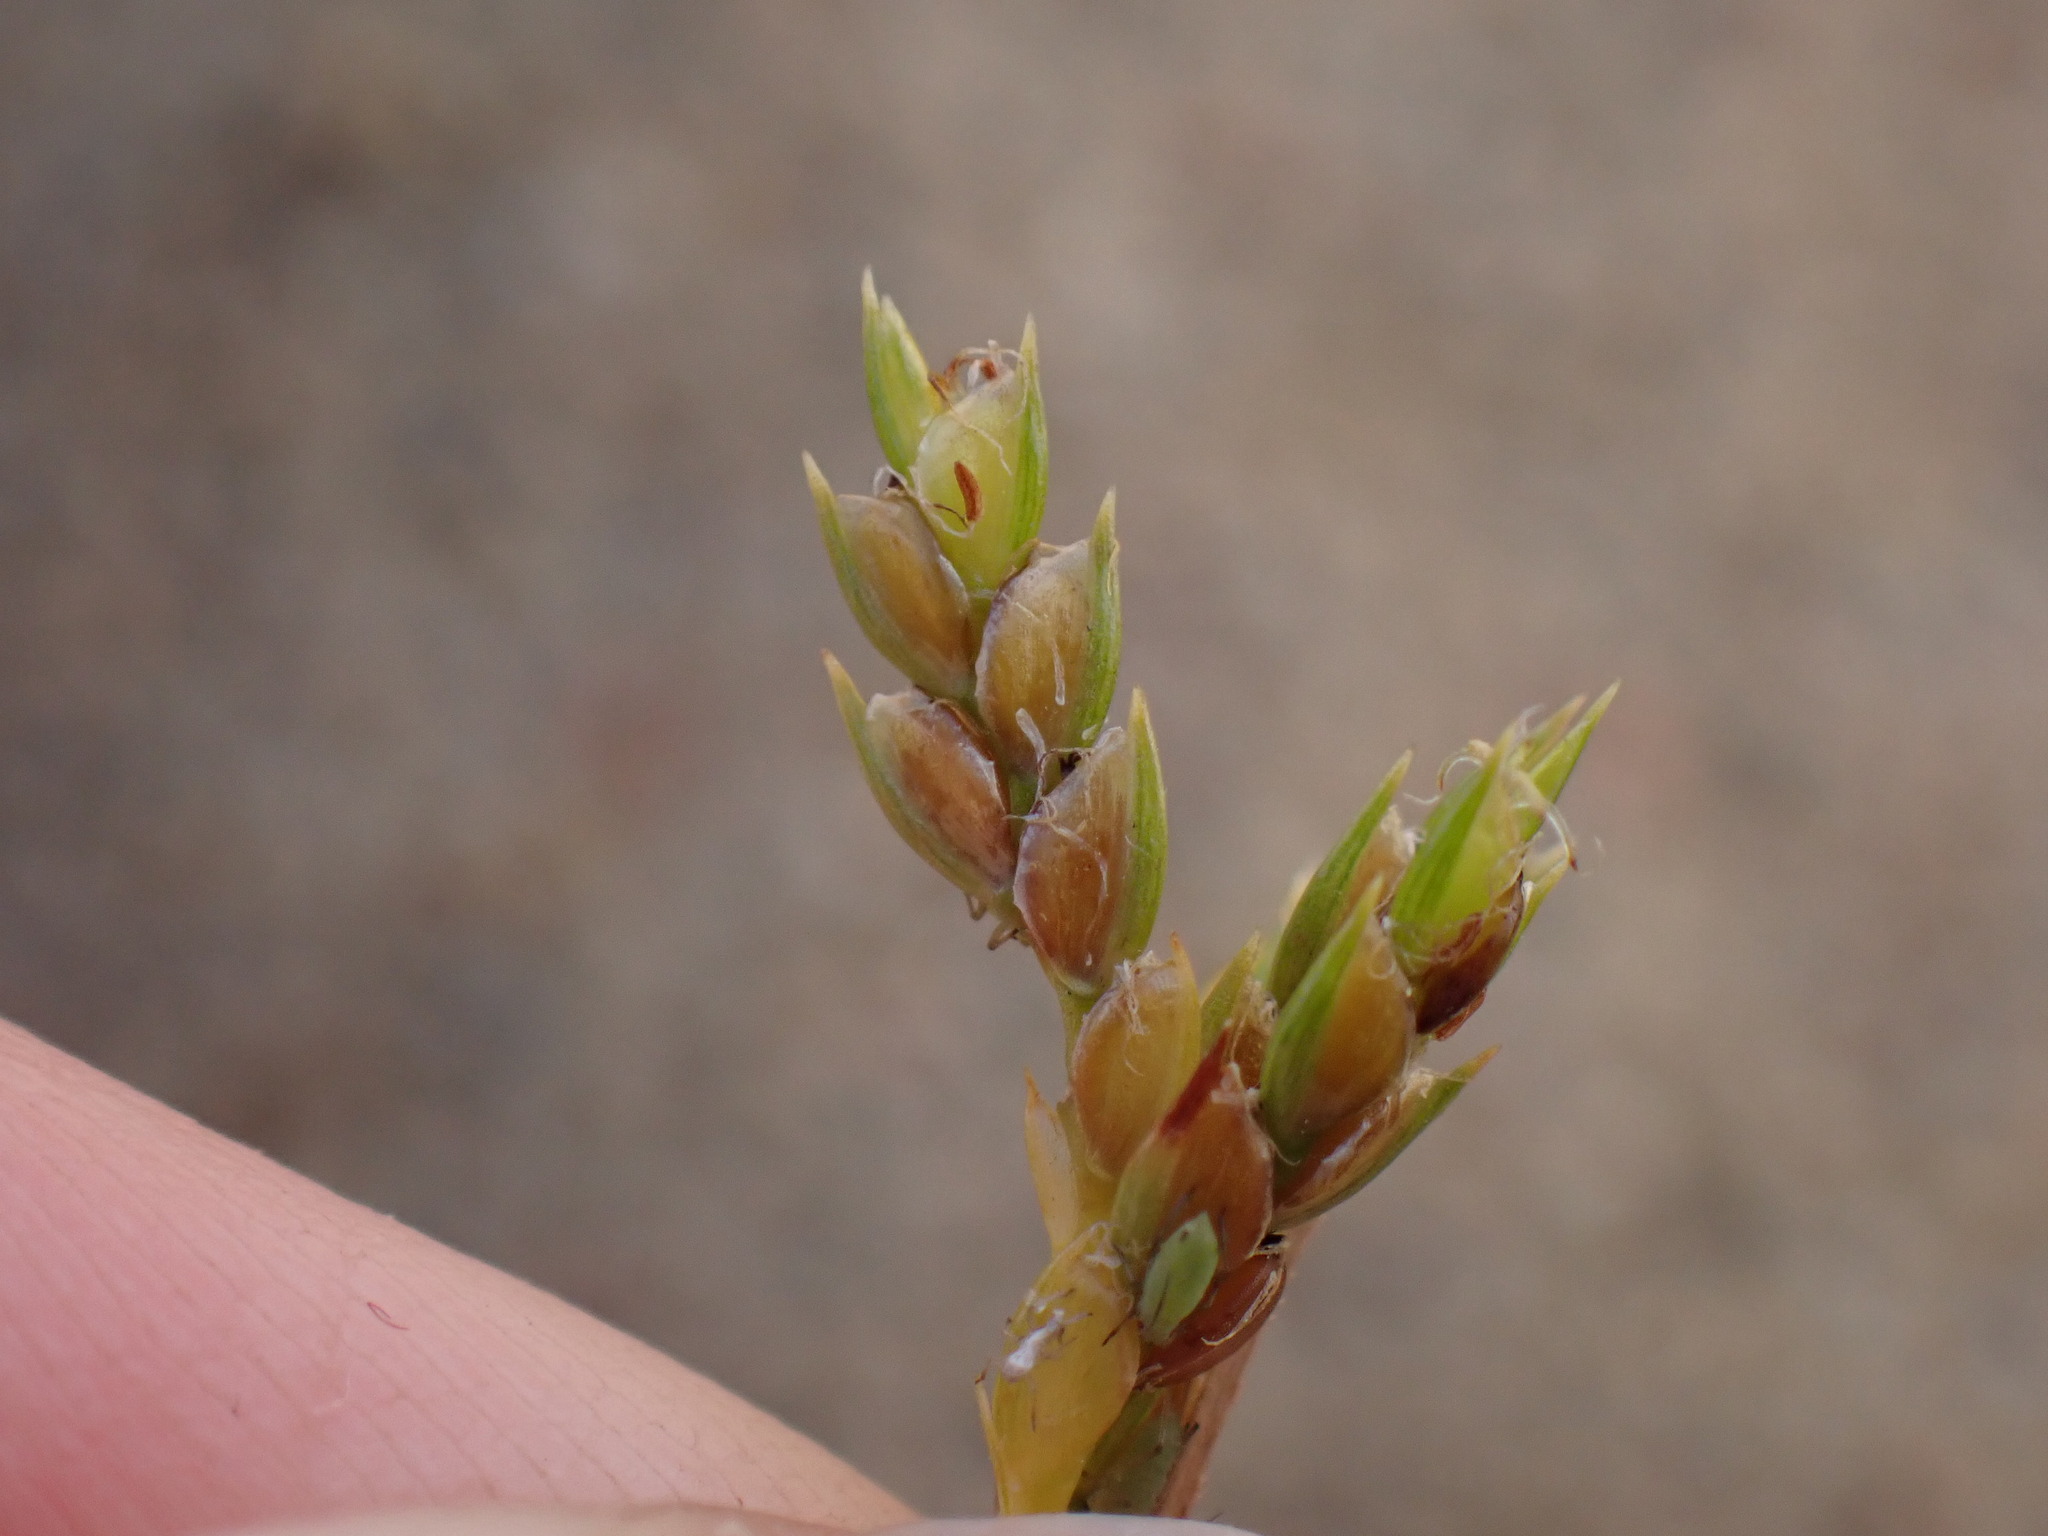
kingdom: Plantae
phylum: Tracheophyta
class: Liliopsida
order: Poales
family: Cyperaceae
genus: Cyperus
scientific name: Cyperus schweinitzii
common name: Schweinitz's cyperus
